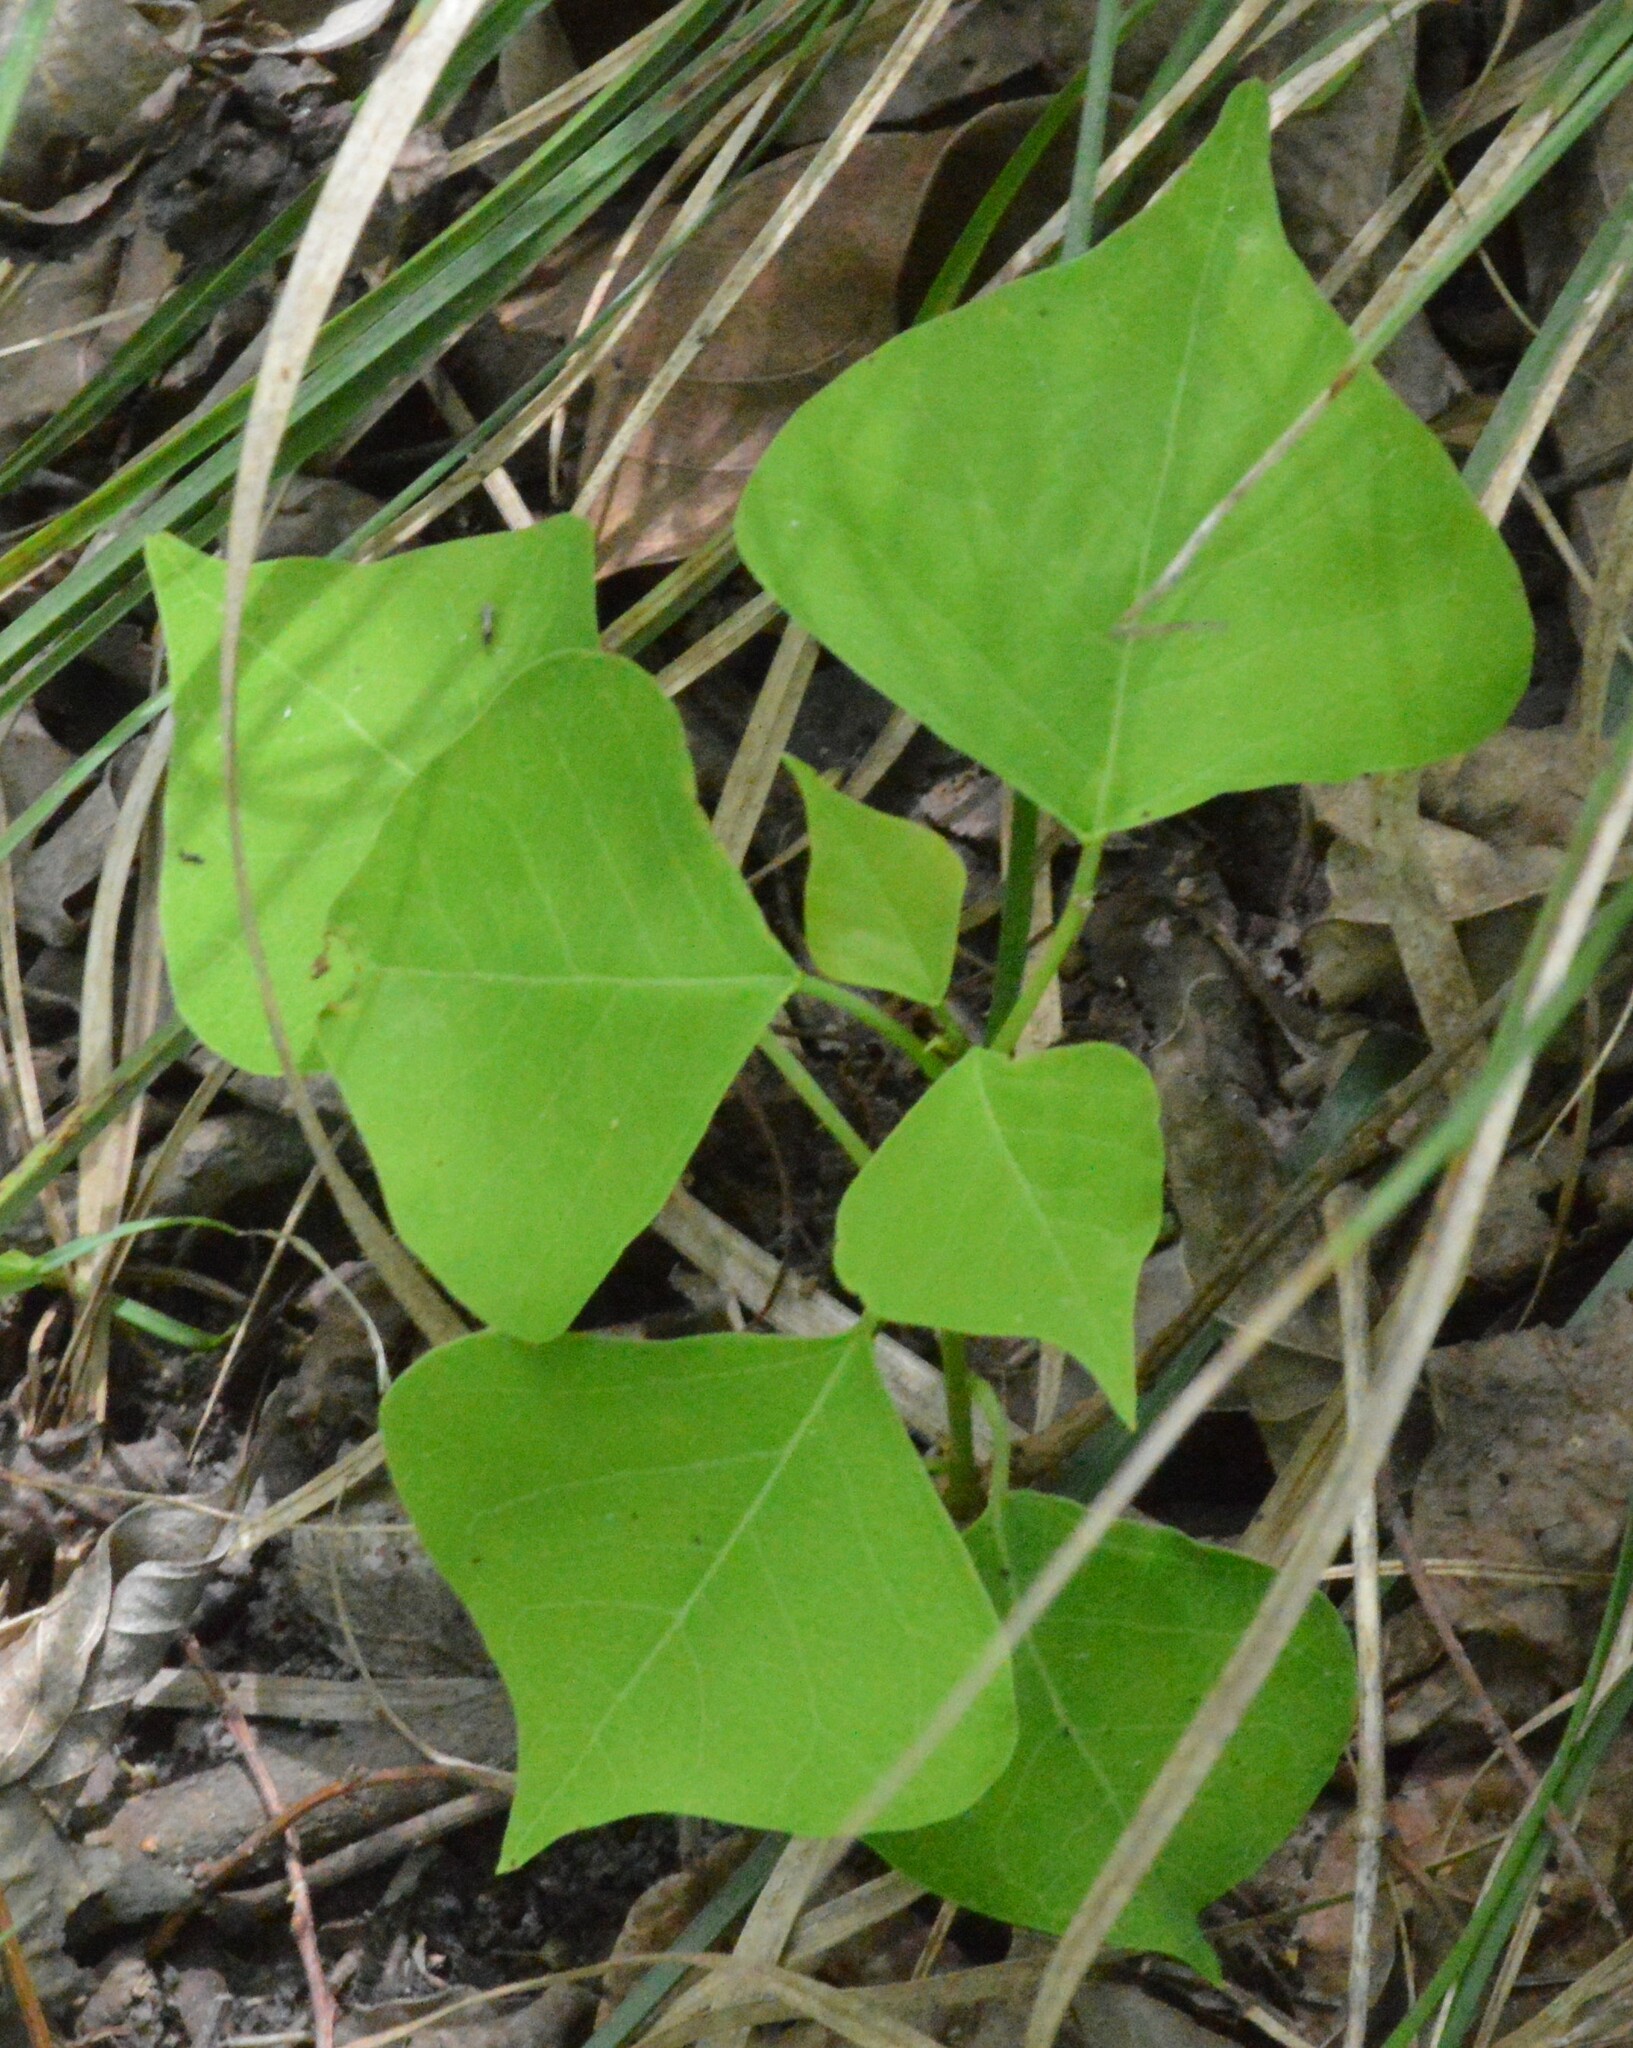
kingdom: Plantae
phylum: Tracheophyta
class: Magnoliopsida
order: Malpighiales
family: Euphorbiaceae
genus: Triadica
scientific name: Triadica sebifera
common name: Chinese tallow
